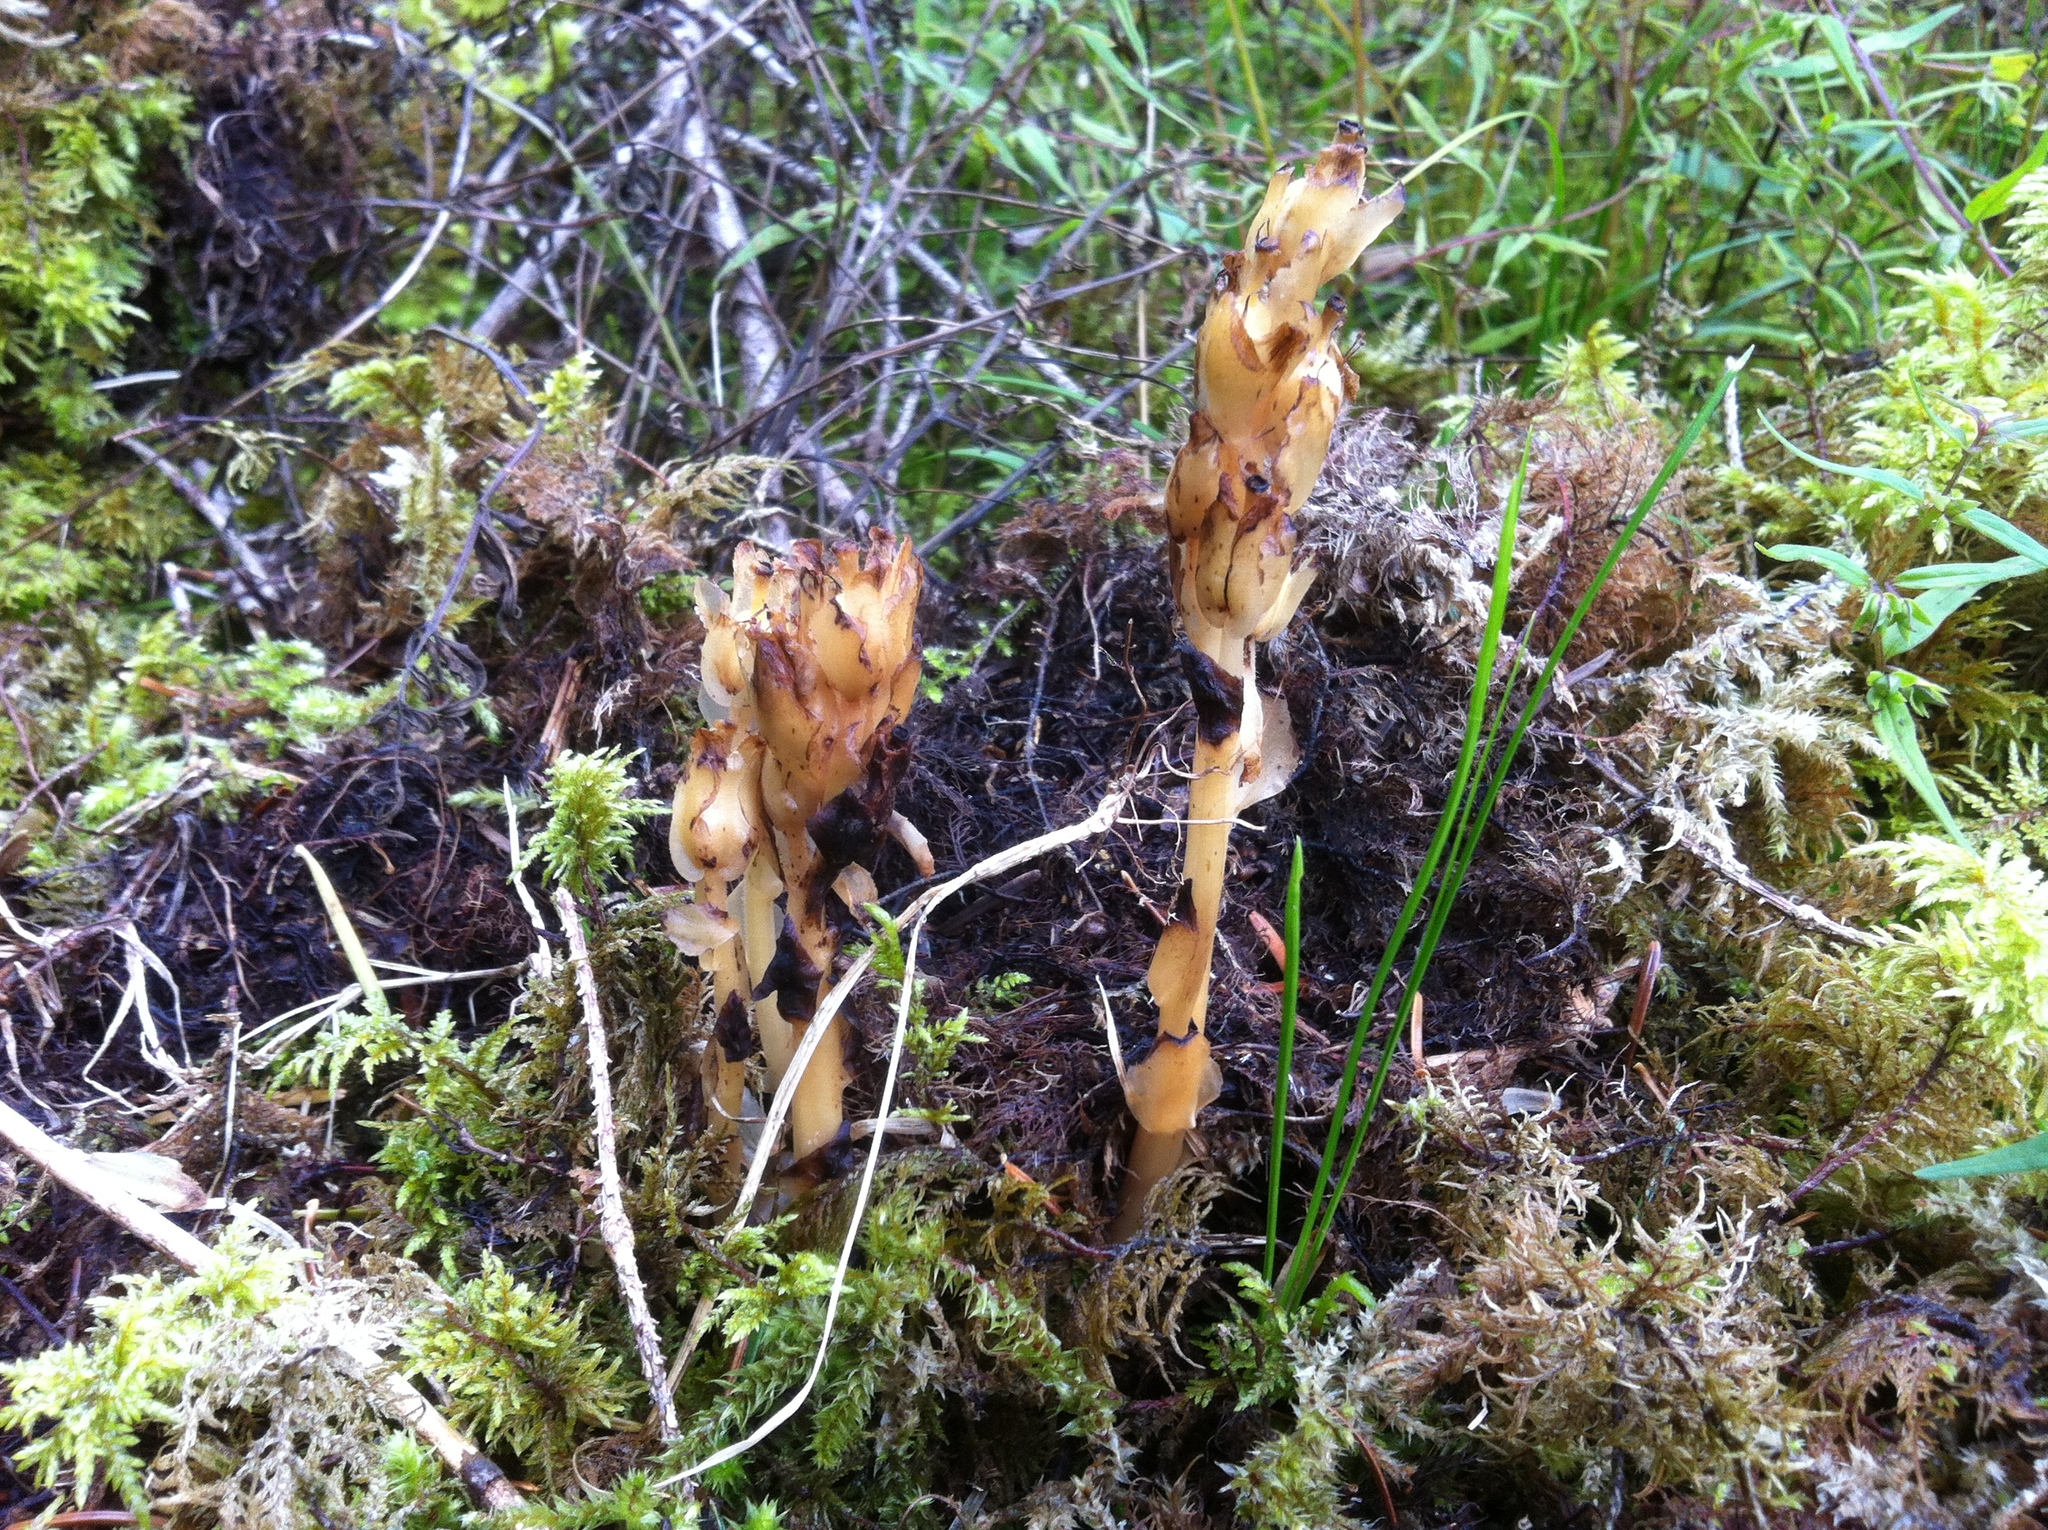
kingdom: Plantae
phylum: Tracheophyta
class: Magnoliopsida
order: Ericales
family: Ericaceae
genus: Hypopitys
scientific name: Hypopitys monotropa
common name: Yellow bird's-nest
